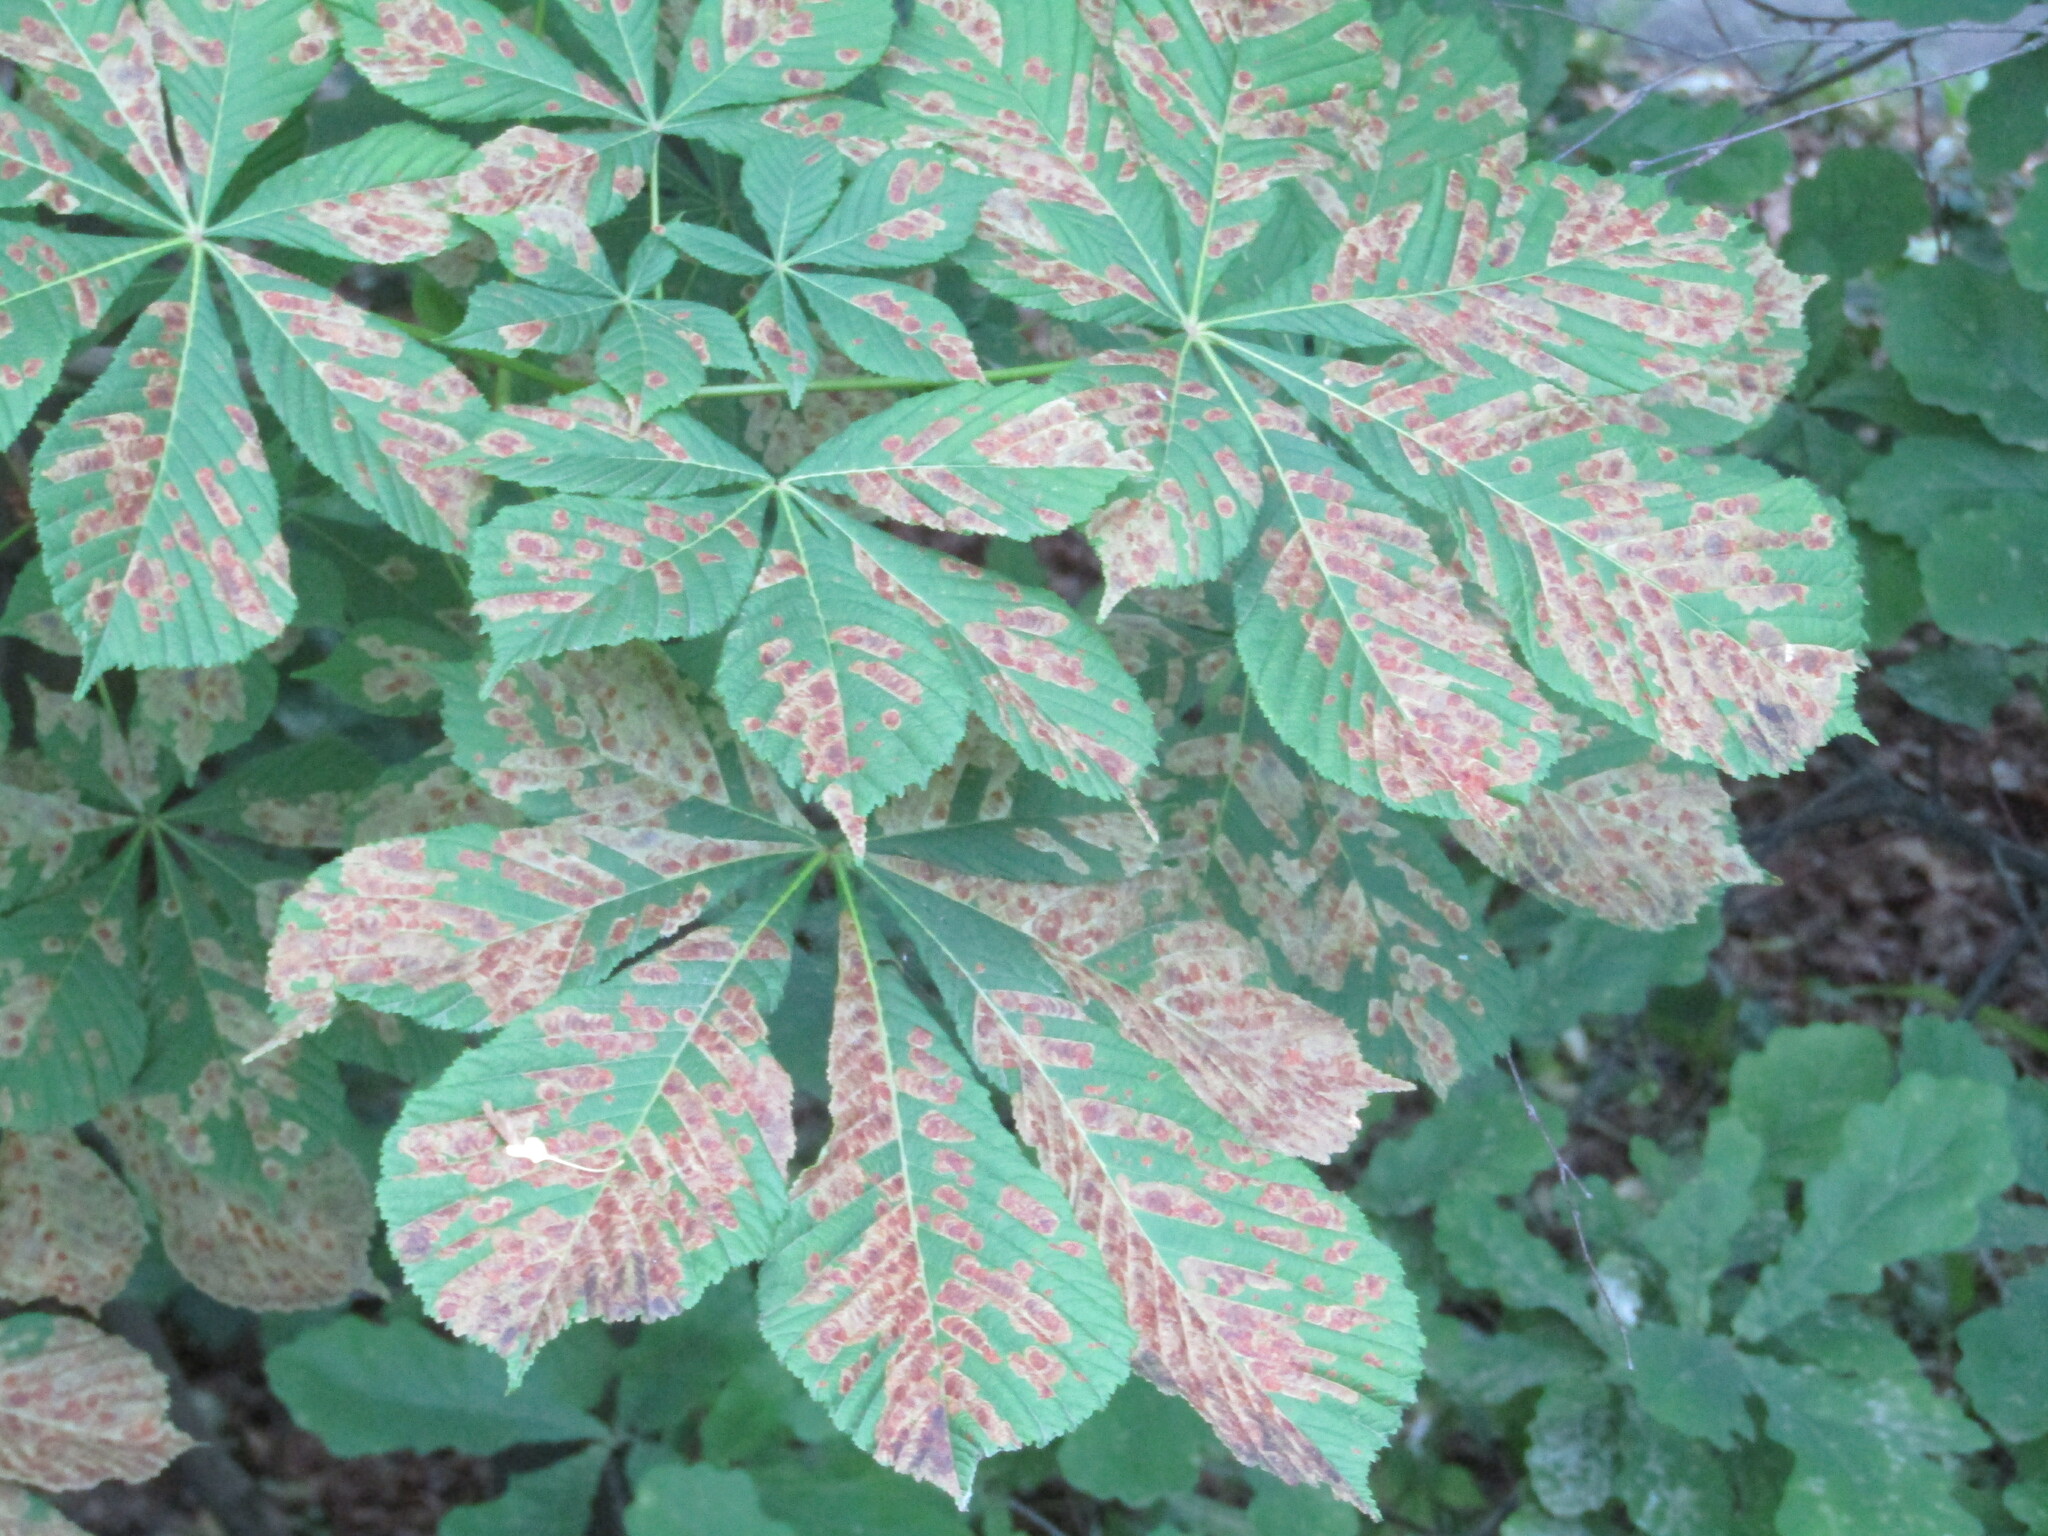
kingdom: Animalia
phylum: Arthropoda
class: Insecta
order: Lepidoptera
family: Gracillariidae
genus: Cameraria
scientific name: Cameraria ohridella
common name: Horse-chestnut leaf-miner
